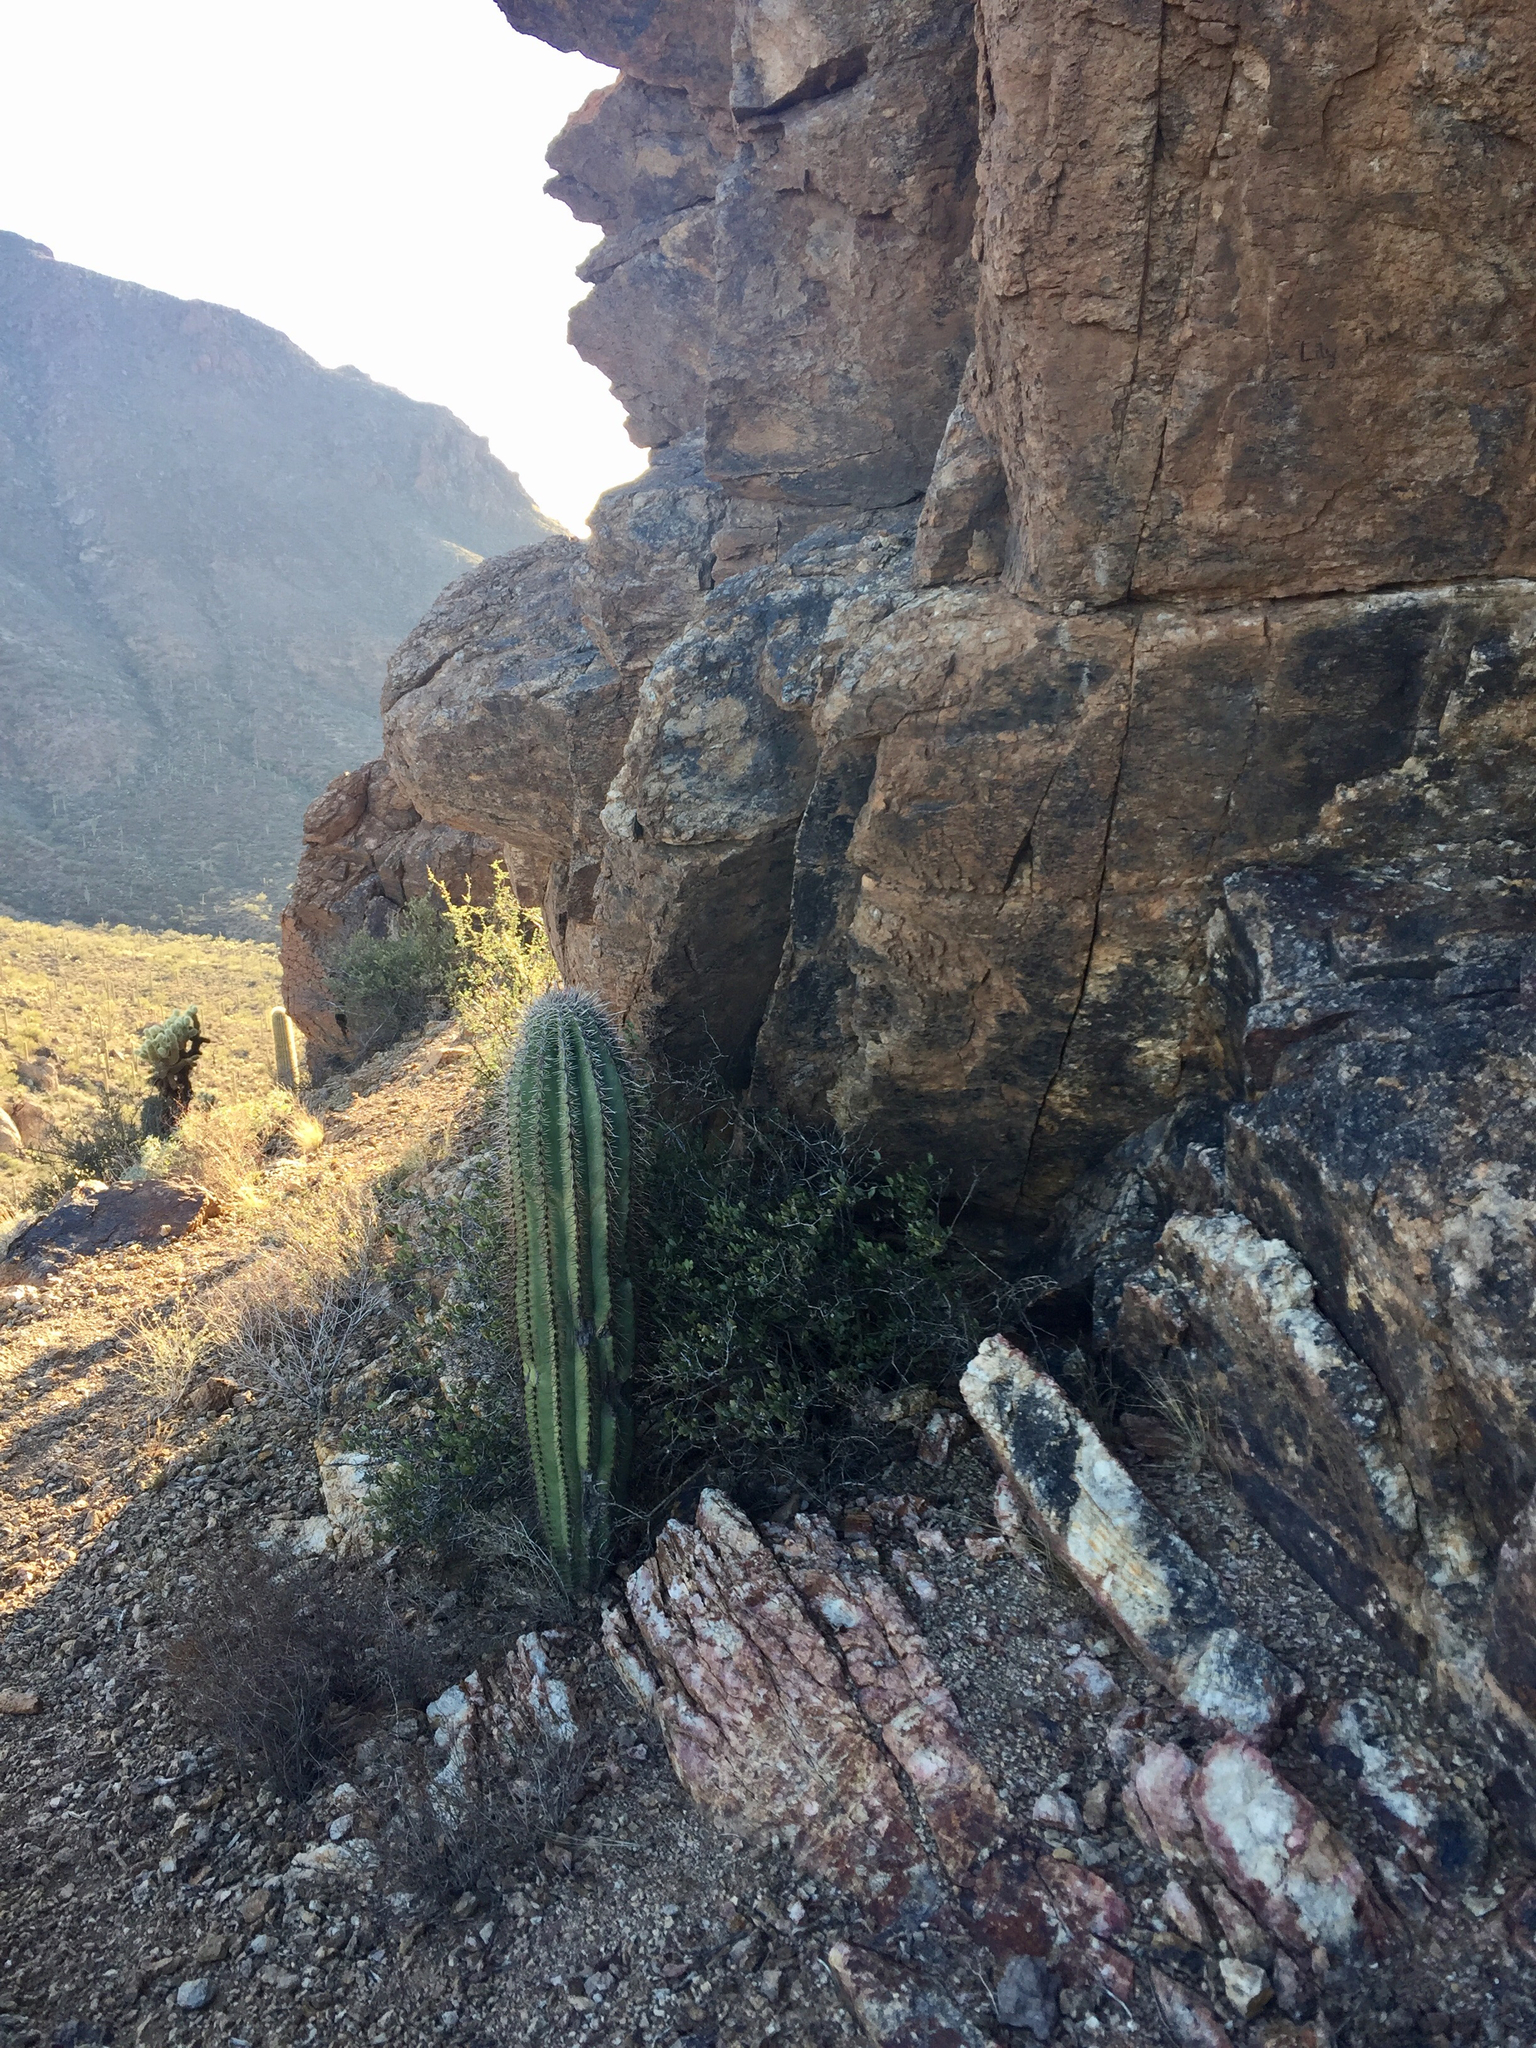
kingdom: Plantae
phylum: Tracheophyta
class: Magnoliopsida
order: Caryophyllales
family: Cactaceae
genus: Carnegiea
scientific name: Carnegiea gigantea
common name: Saguaro
